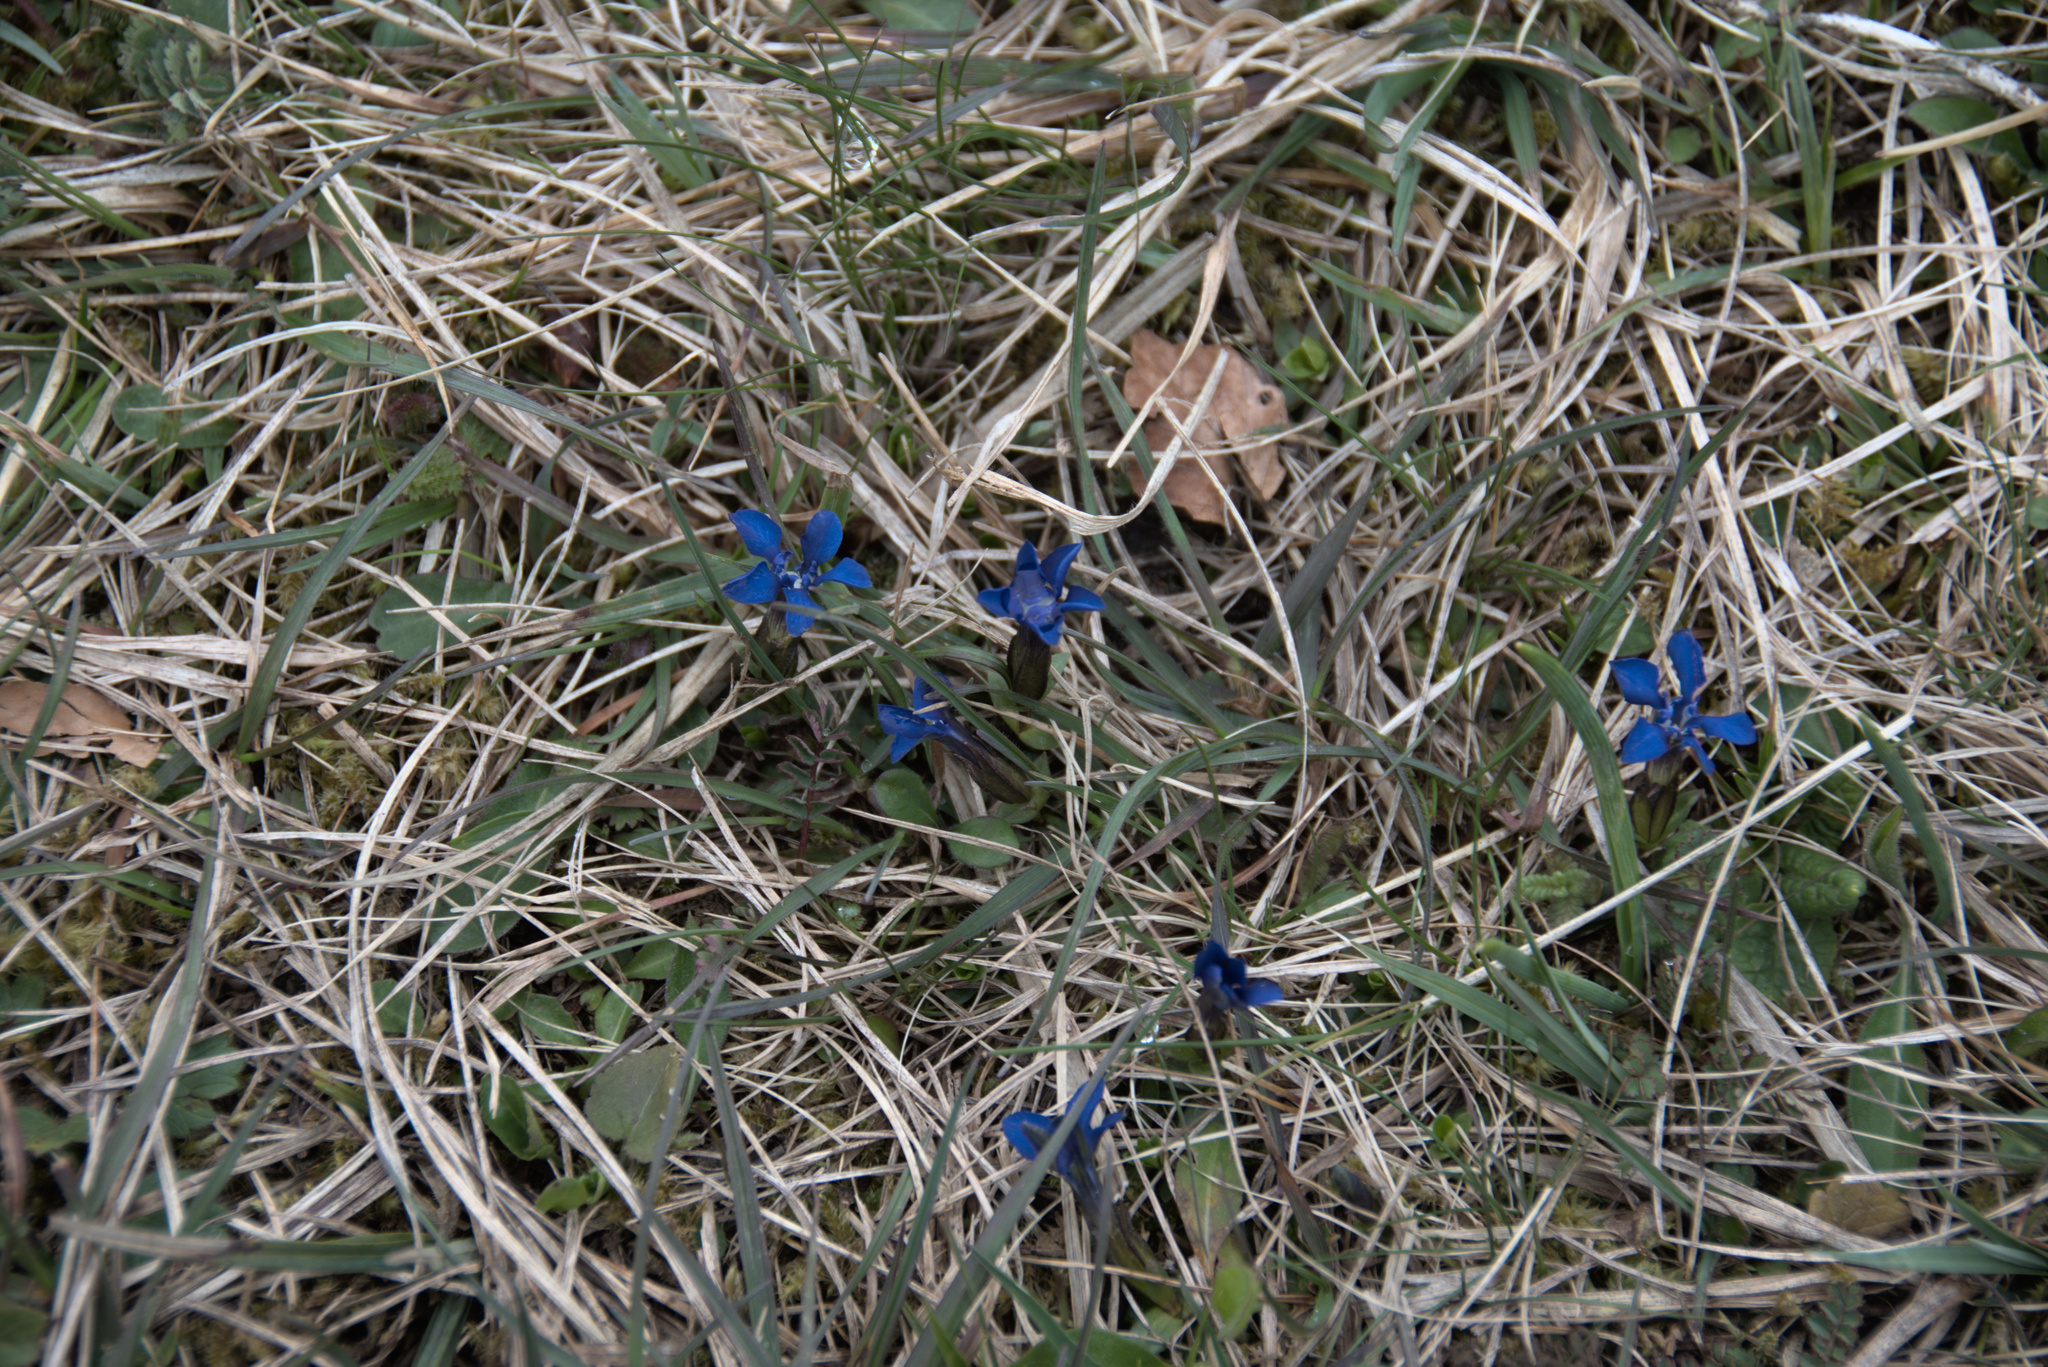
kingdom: Plantae
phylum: Tracheophyta
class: Magnoliopsida
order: Gentianales
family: Gentianaceae
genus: Gentiana
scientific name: Gentiana verna
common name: Spring gentian
